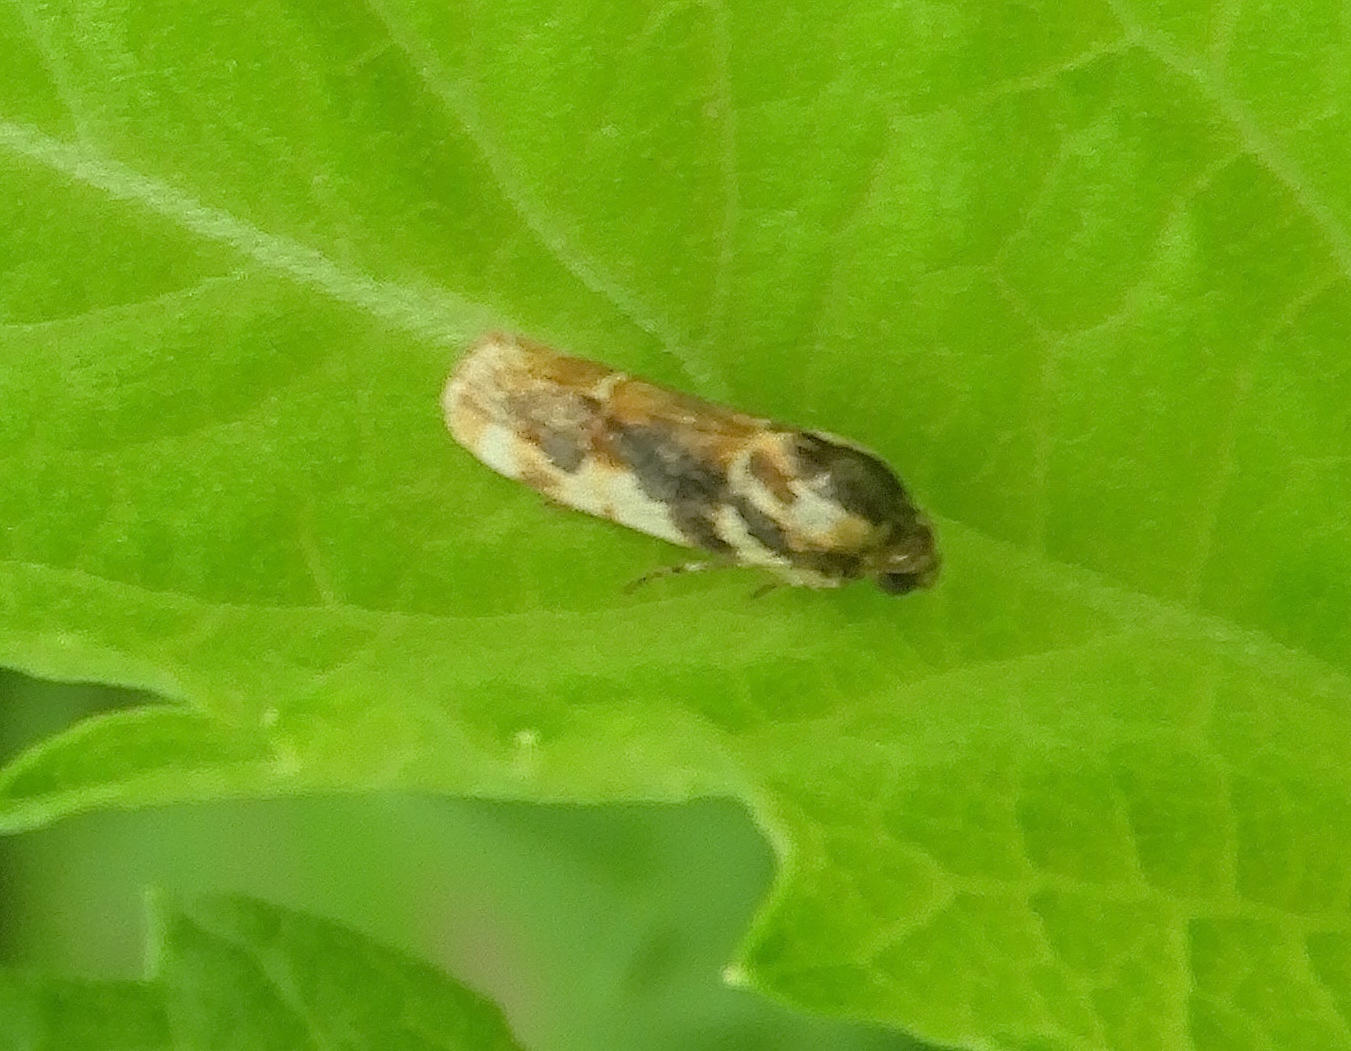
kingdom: Animalia
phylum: Arthropoda
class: Insecta
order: Lepidoptera
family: Noctuidae
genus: Spragueia
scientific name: Spragueia
